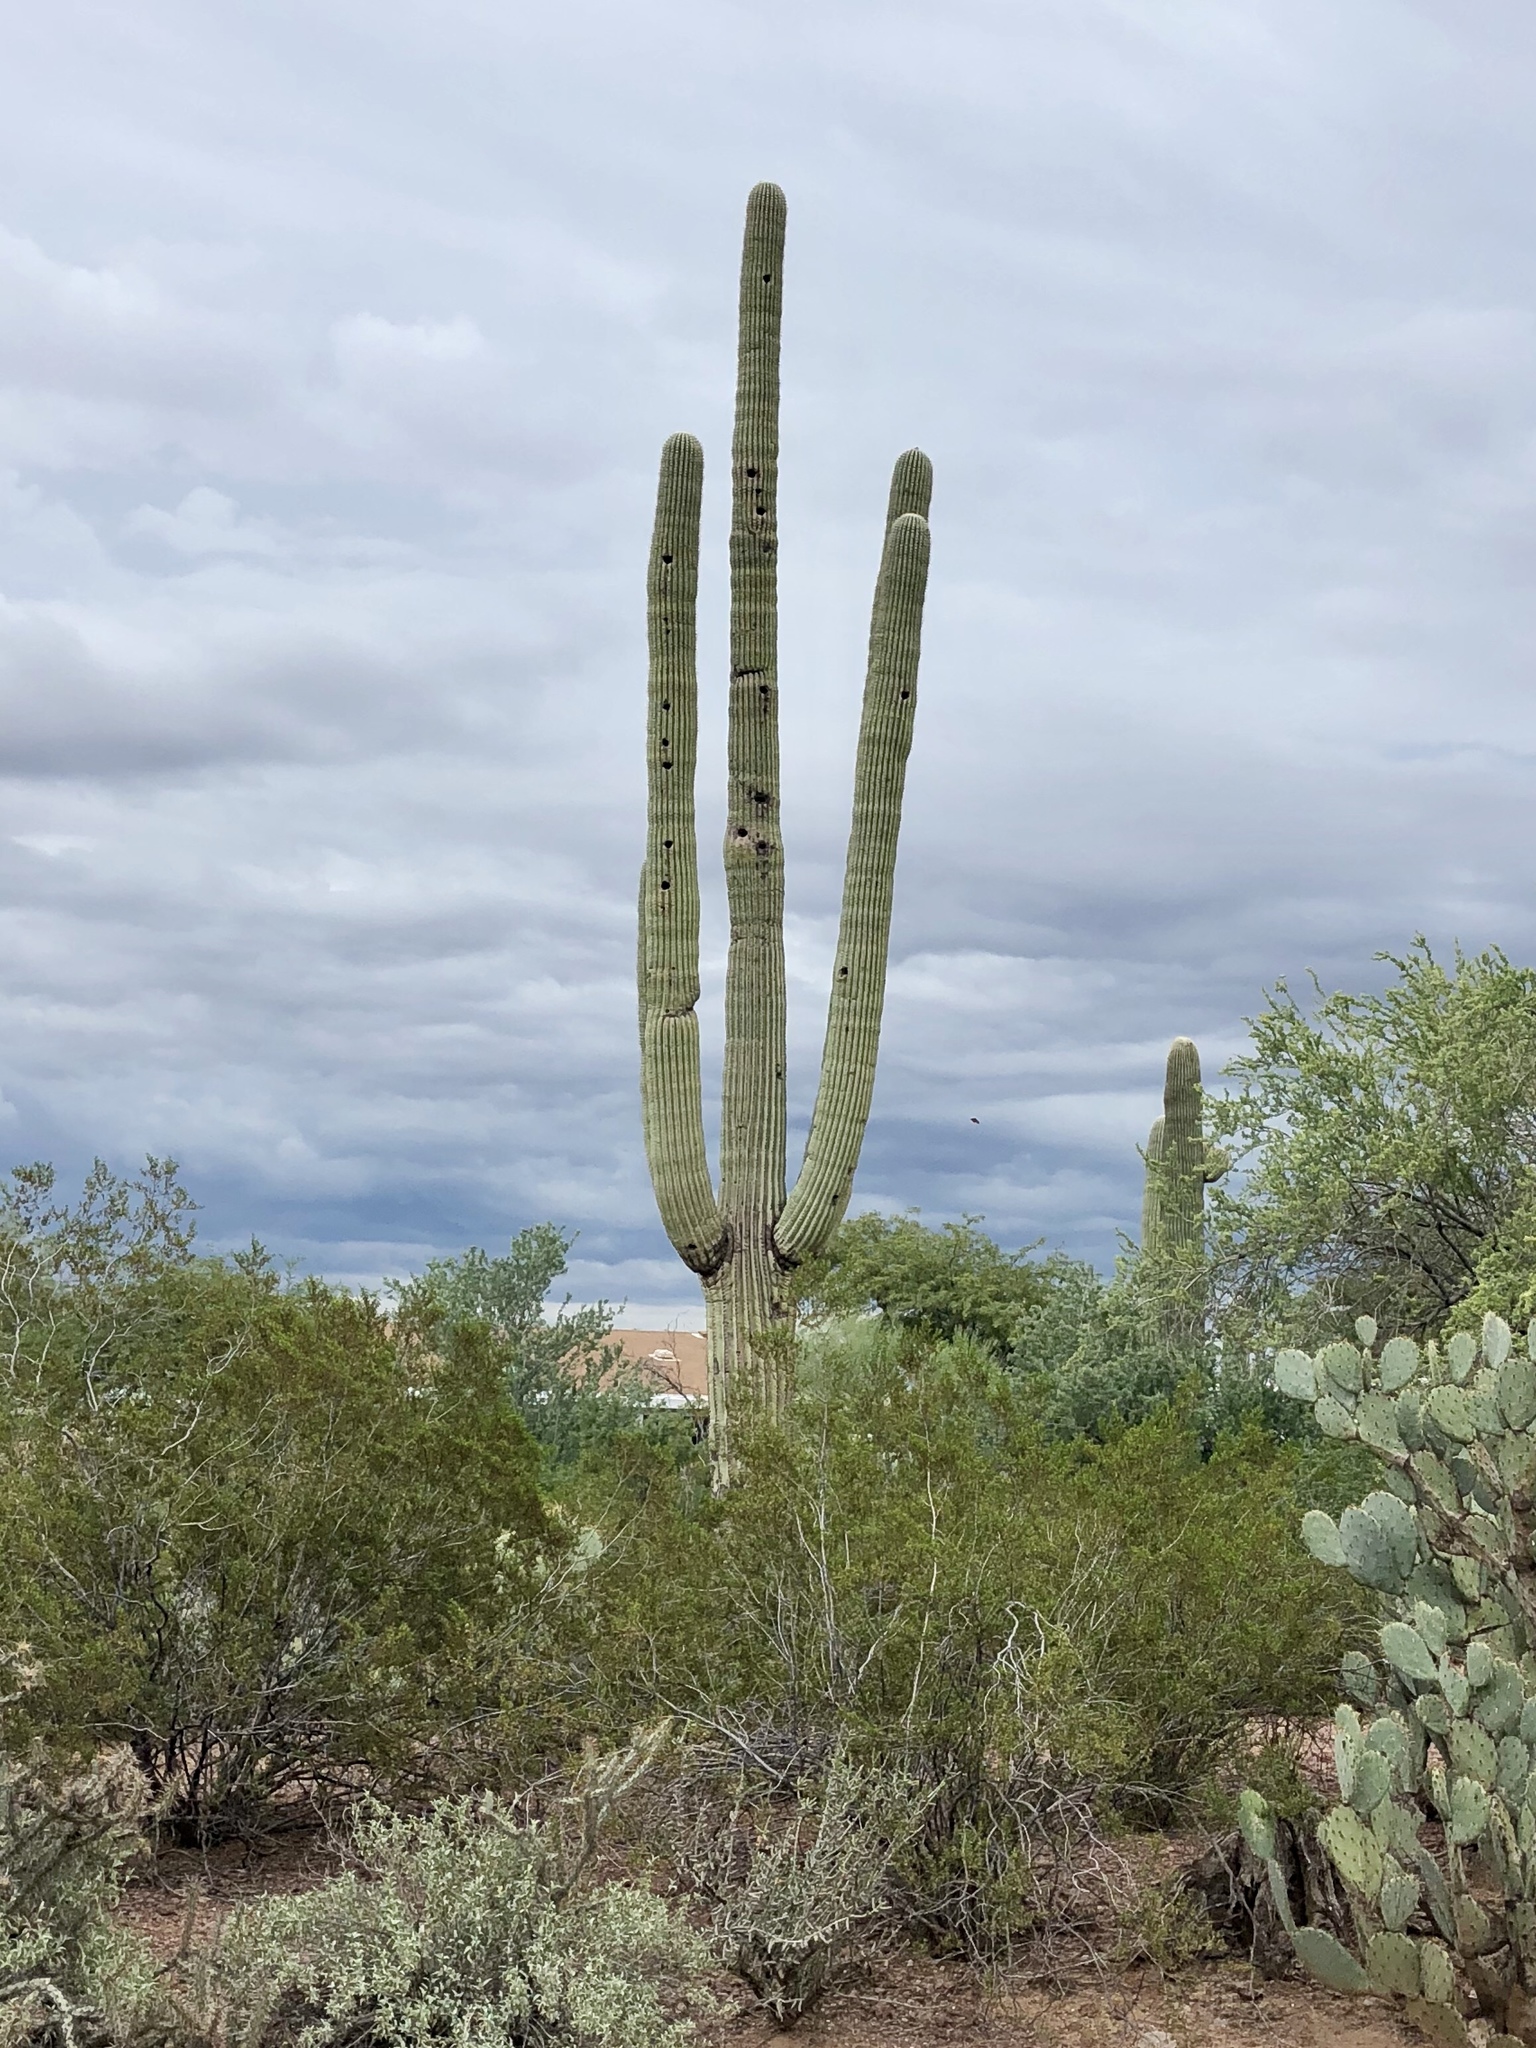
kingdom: Plantae
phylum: Tracheophyta
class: Magnoliopsida
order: Caryophyllales
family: Cactaceae
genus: Carnegiea
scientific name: Carnegiea gigantea
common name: Saguaro
